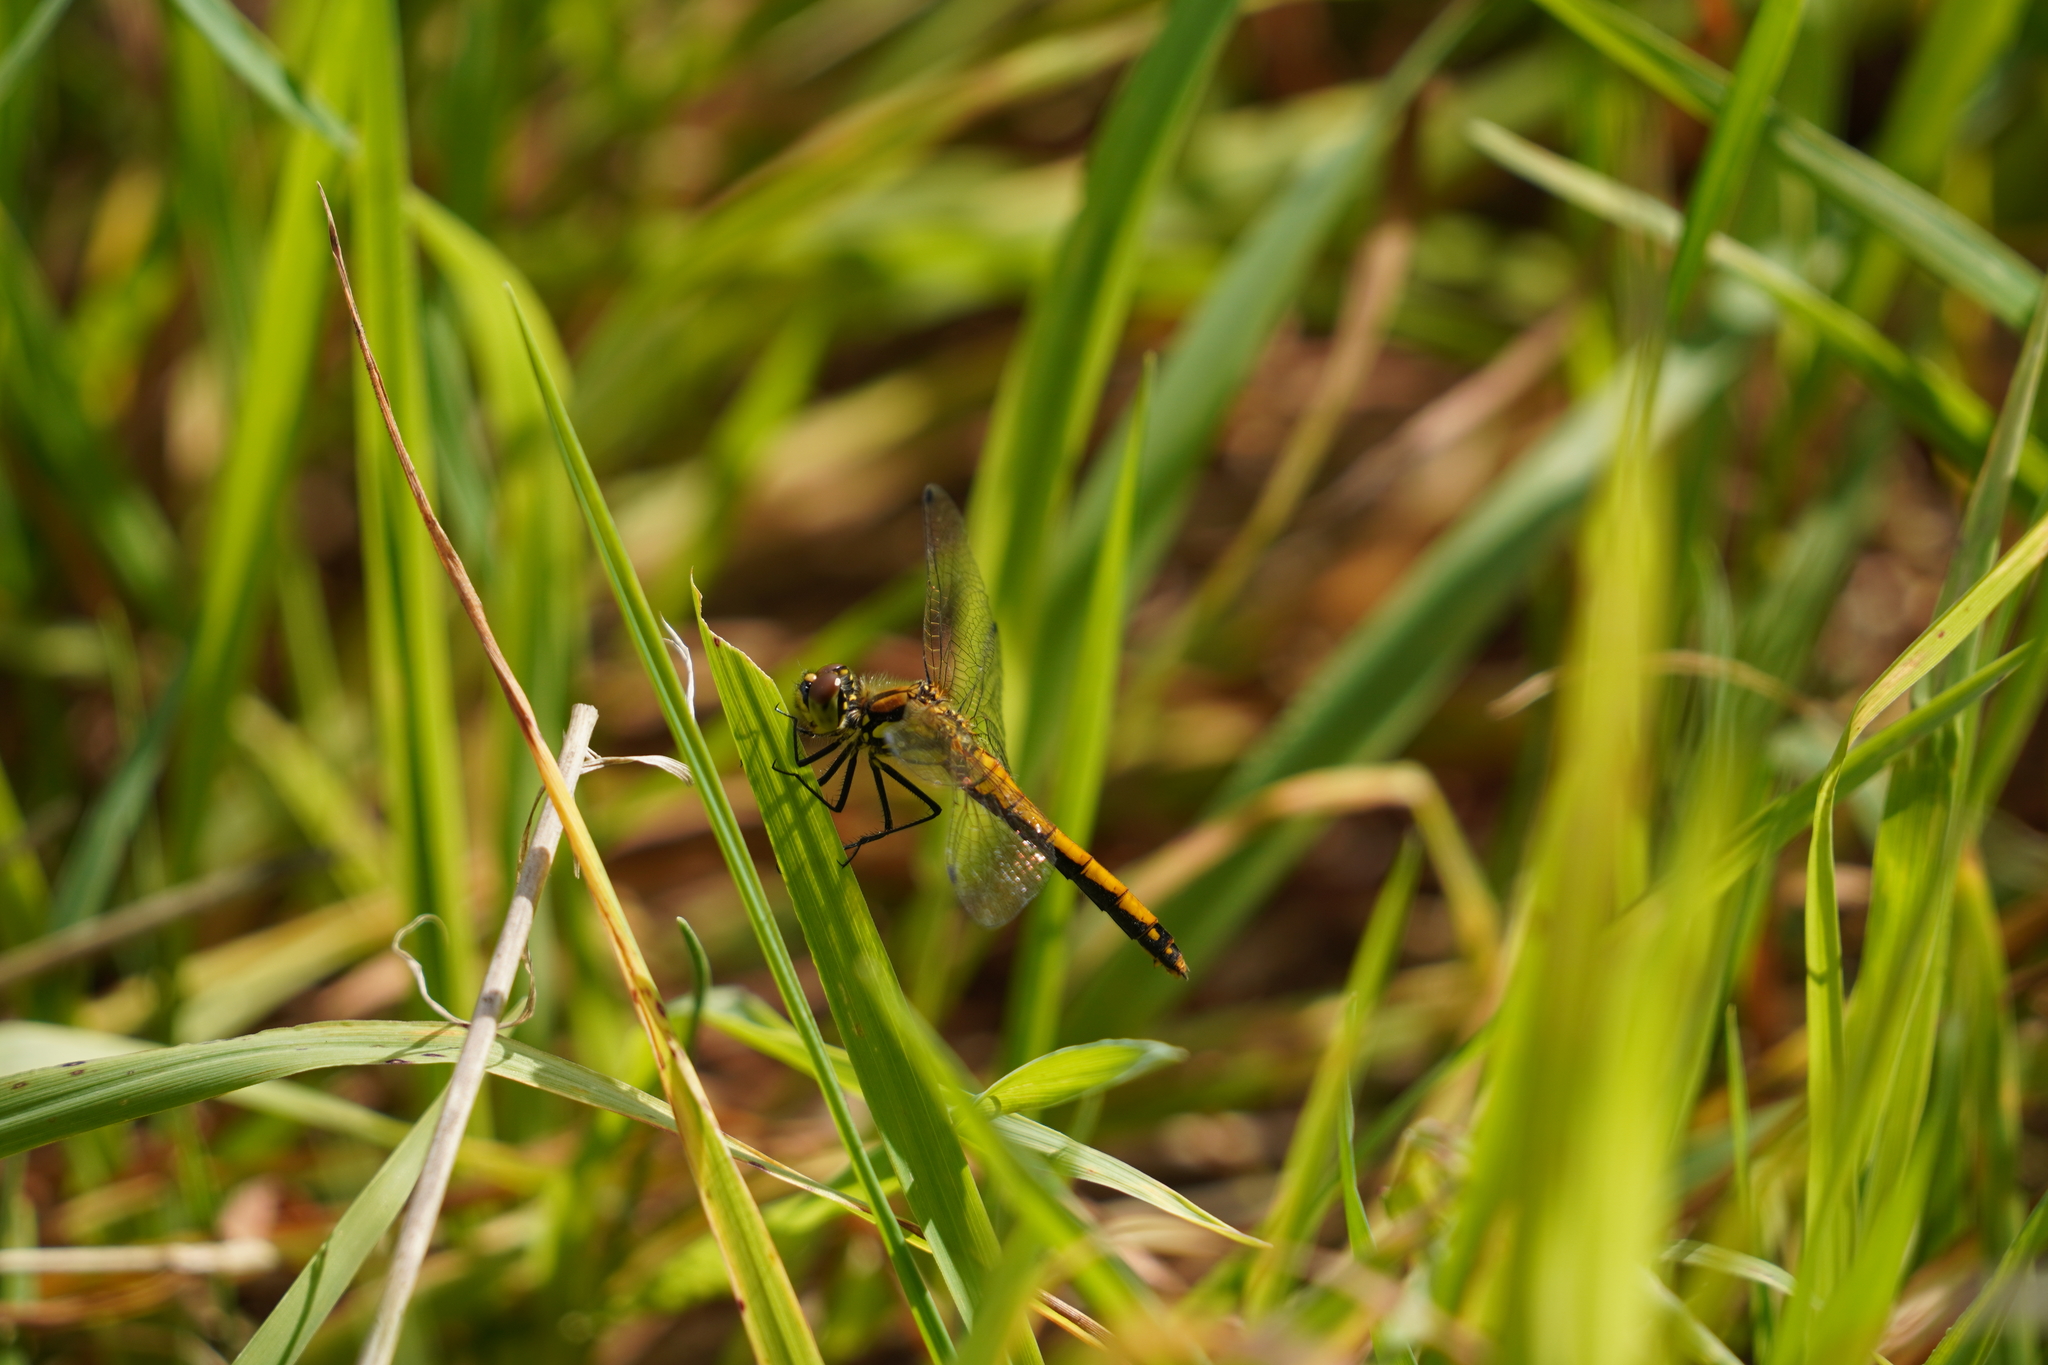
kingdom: Animalia
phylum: Arthropoda
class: Insecta
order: Odonata
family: Libellulidae
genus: Sympetrum
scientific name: Sympetrum danae
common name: Black darter
